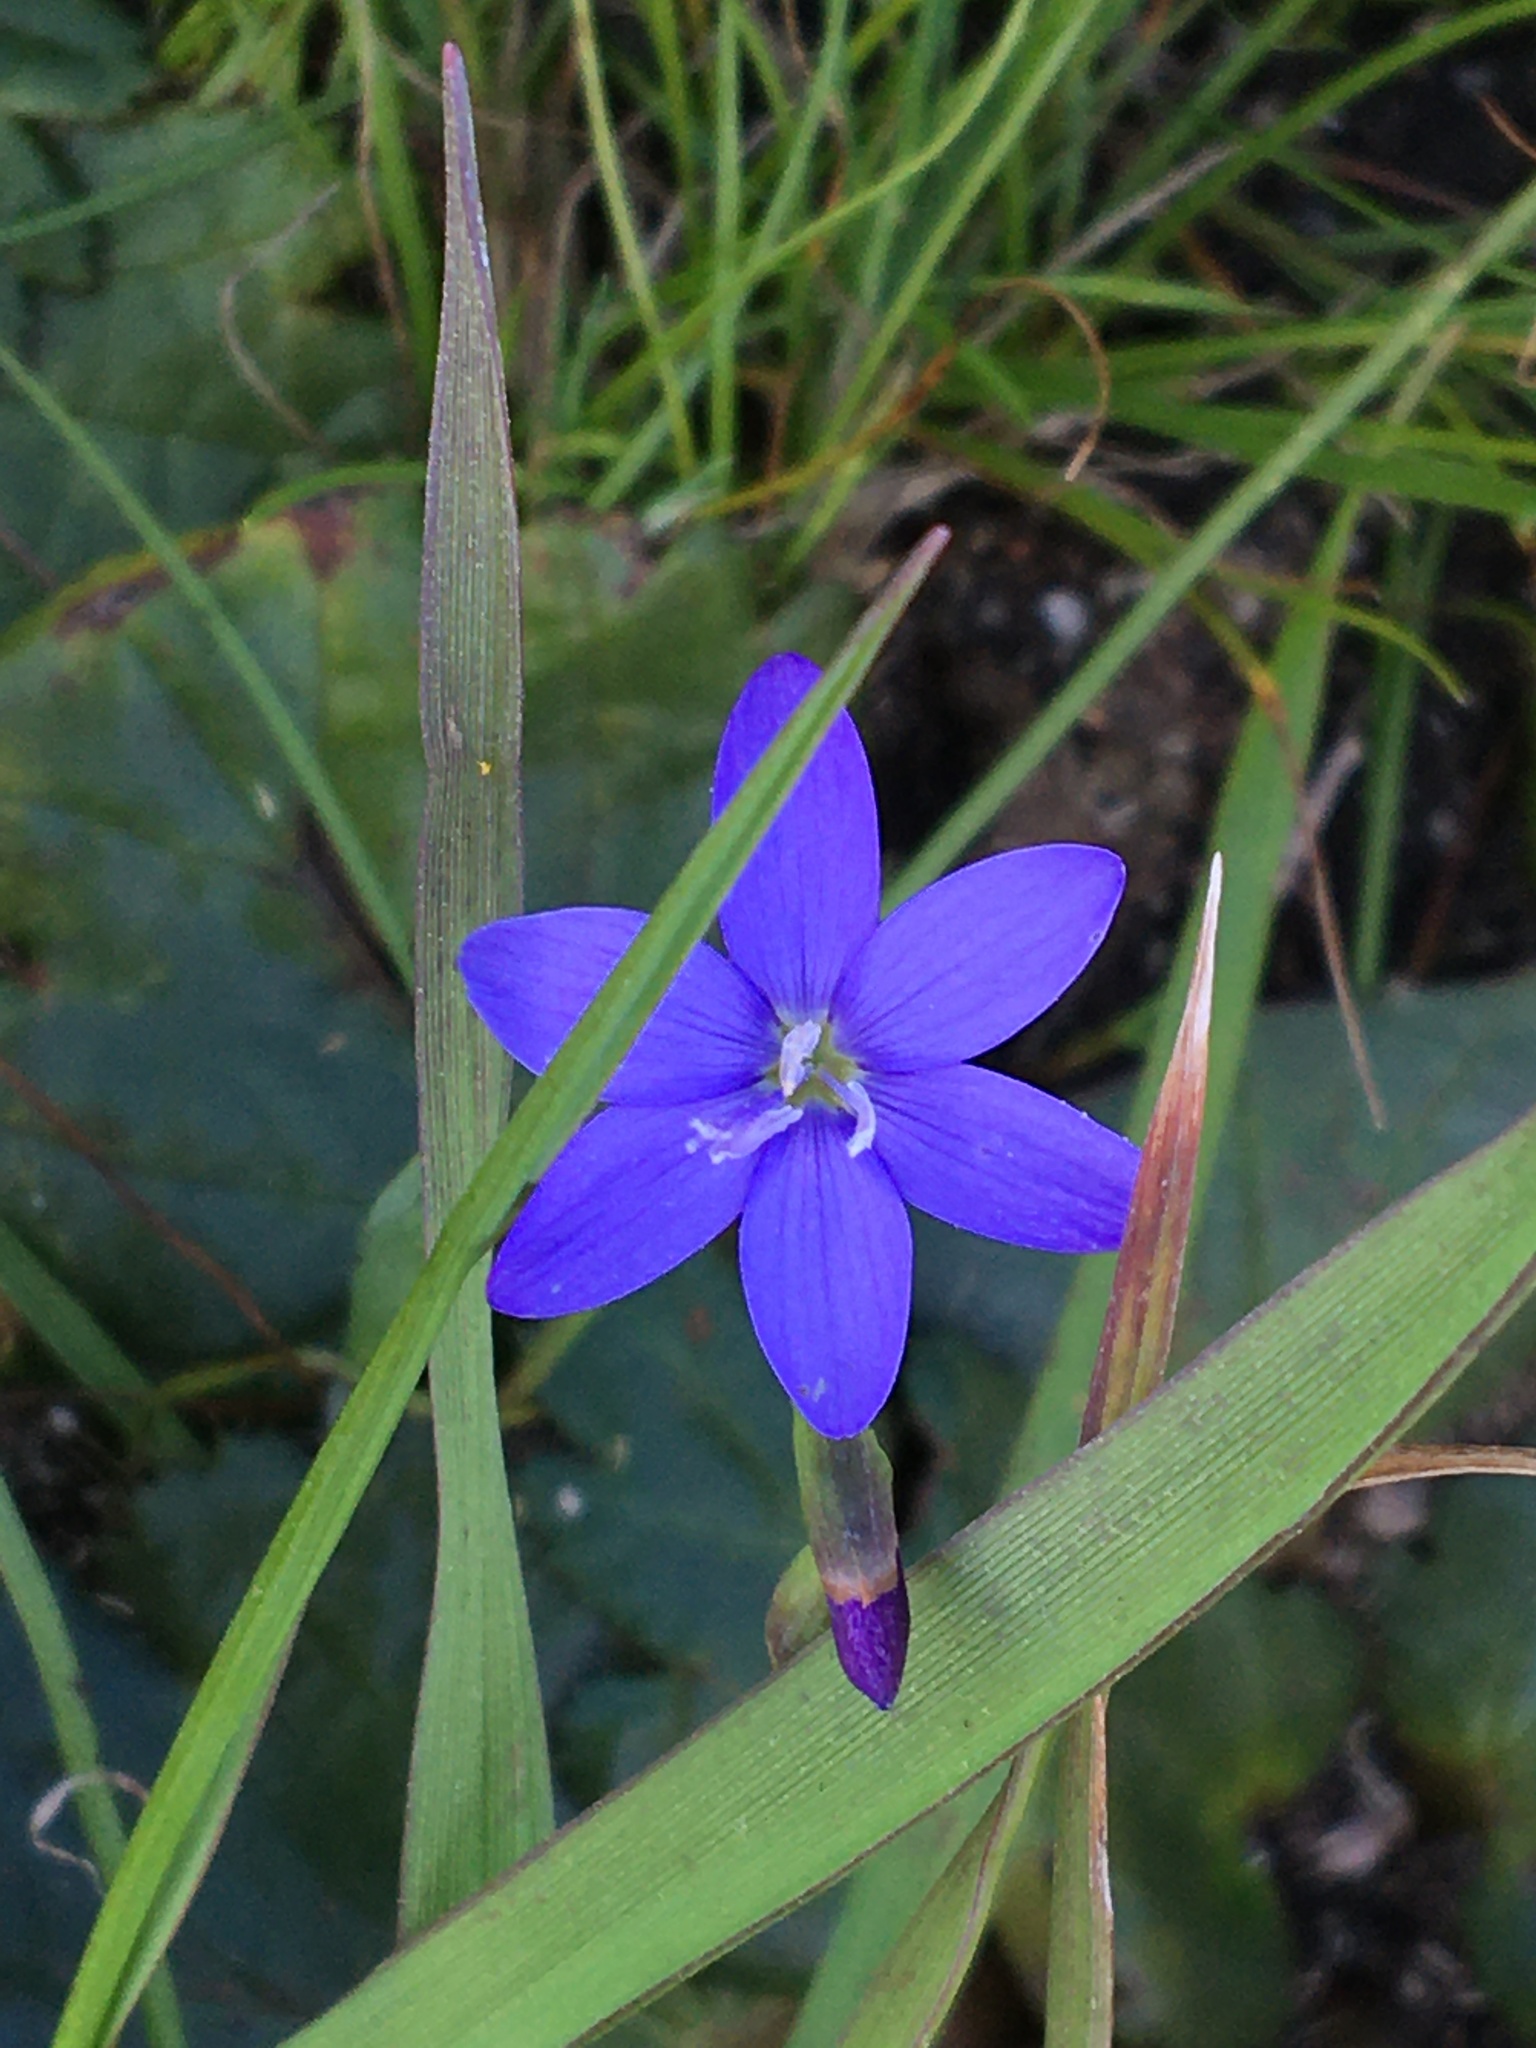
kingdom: Plantae
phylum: Tracheophyta
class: Liliopsida
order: Asparagales
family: Iridaceae
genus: Geissorhiza
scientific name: Geissorhiza aspera
